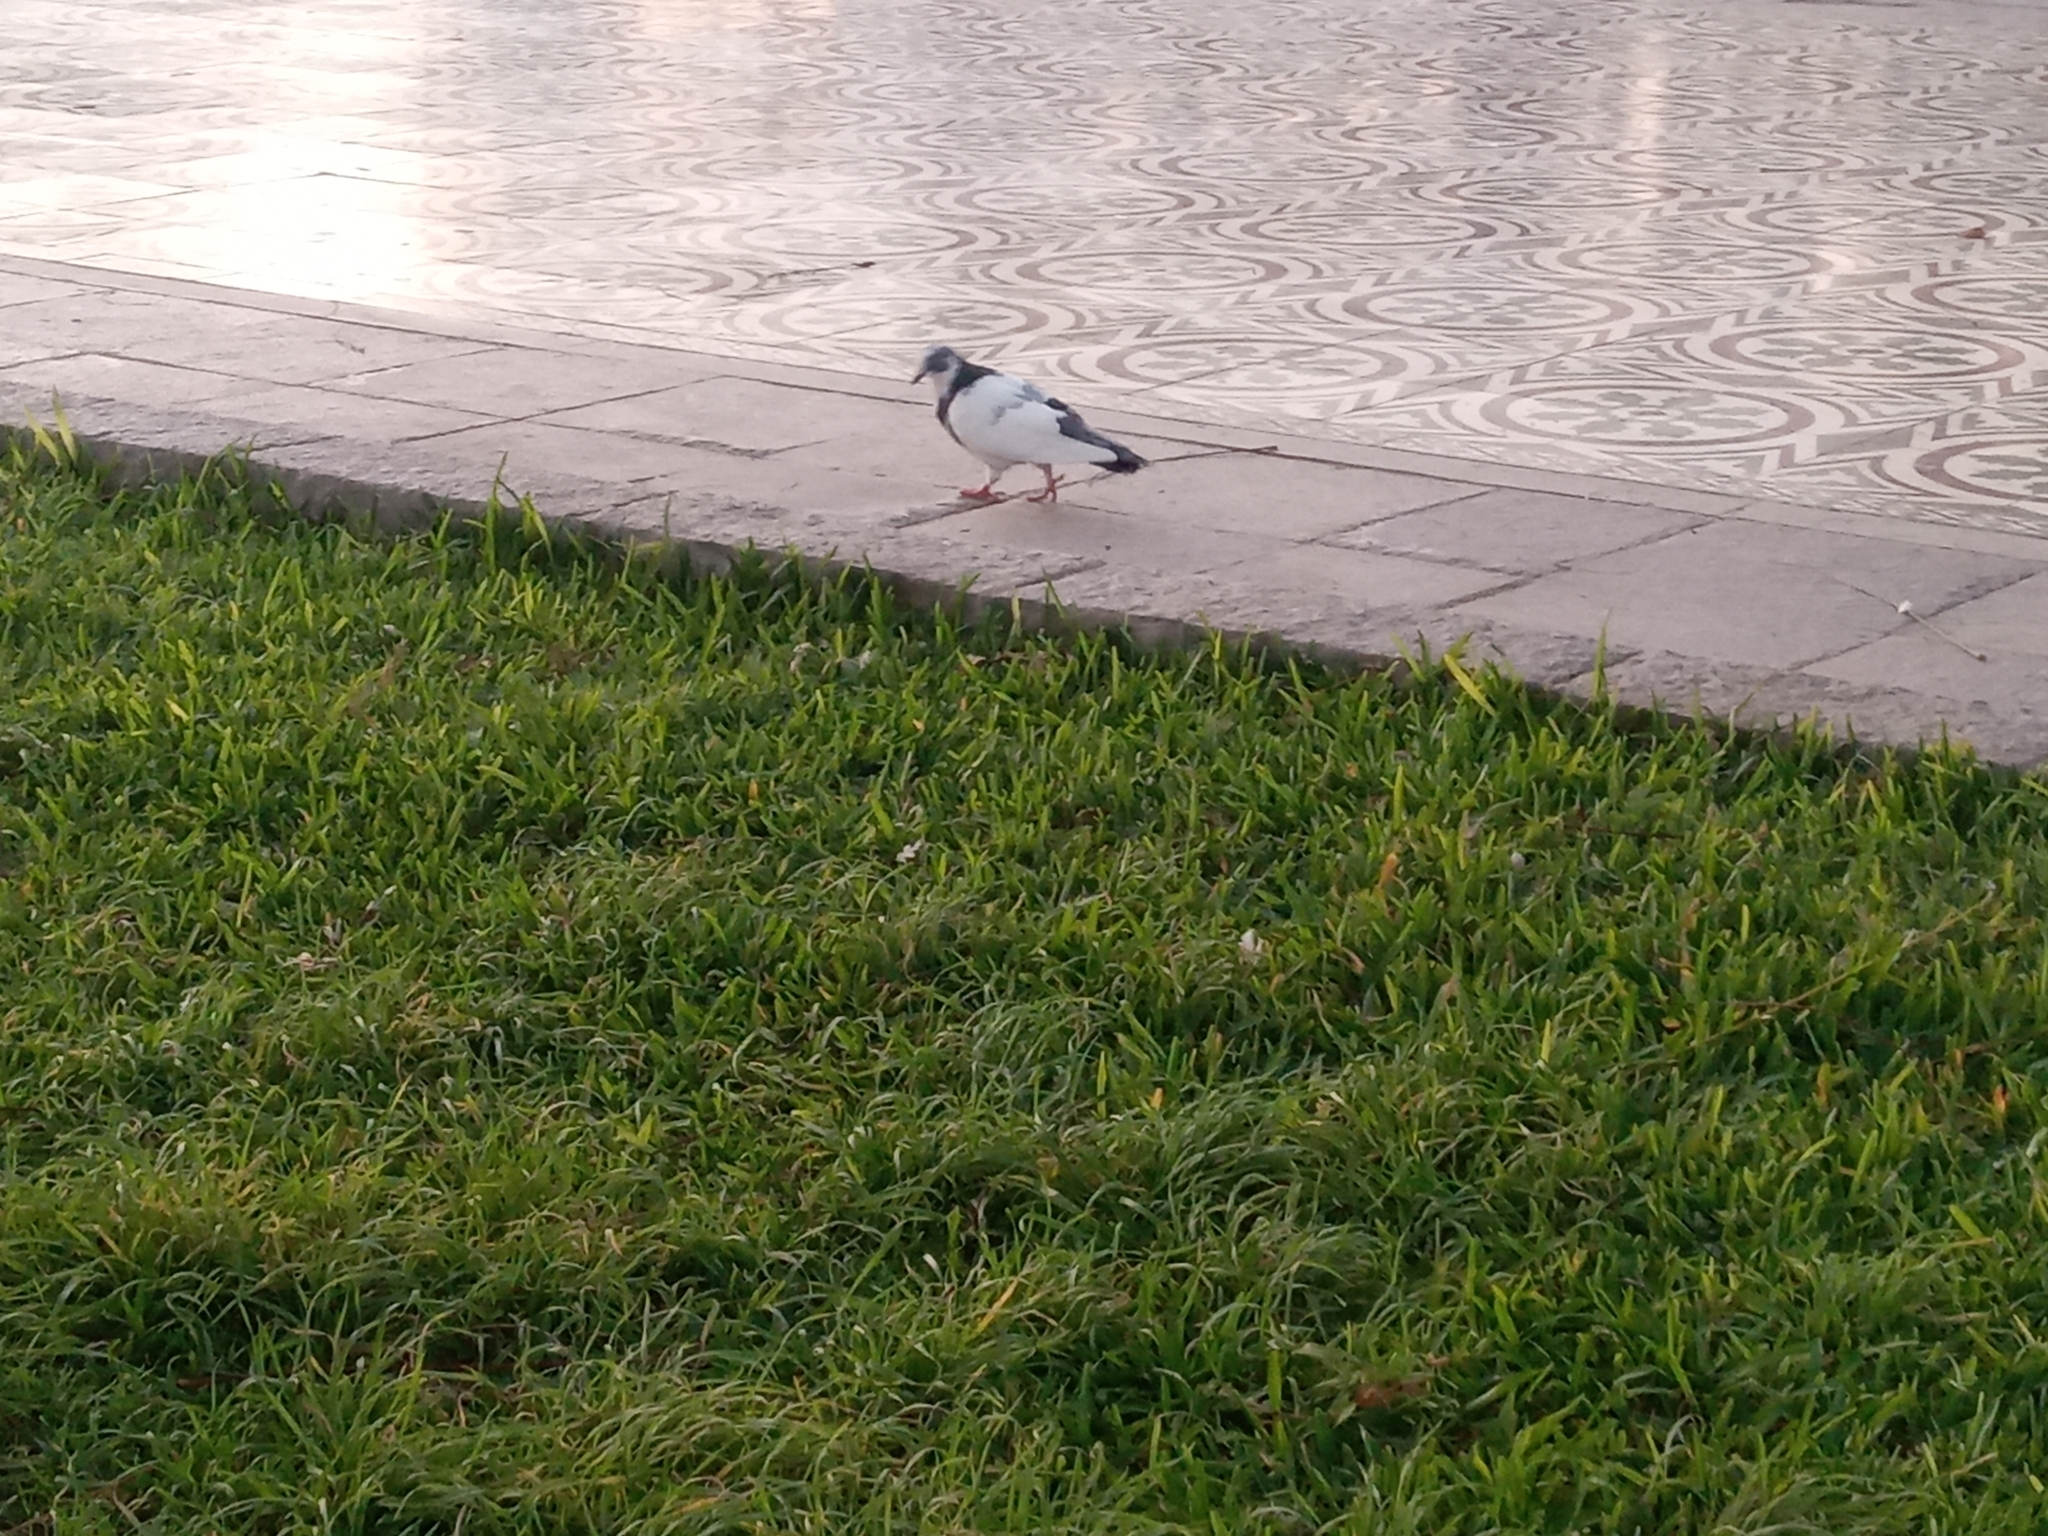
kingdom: Animalia
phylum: Chordata
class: Aves
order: Columbiformes
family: Columbidae
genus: Columba
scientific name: Columba livia
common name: Rock pigeon
